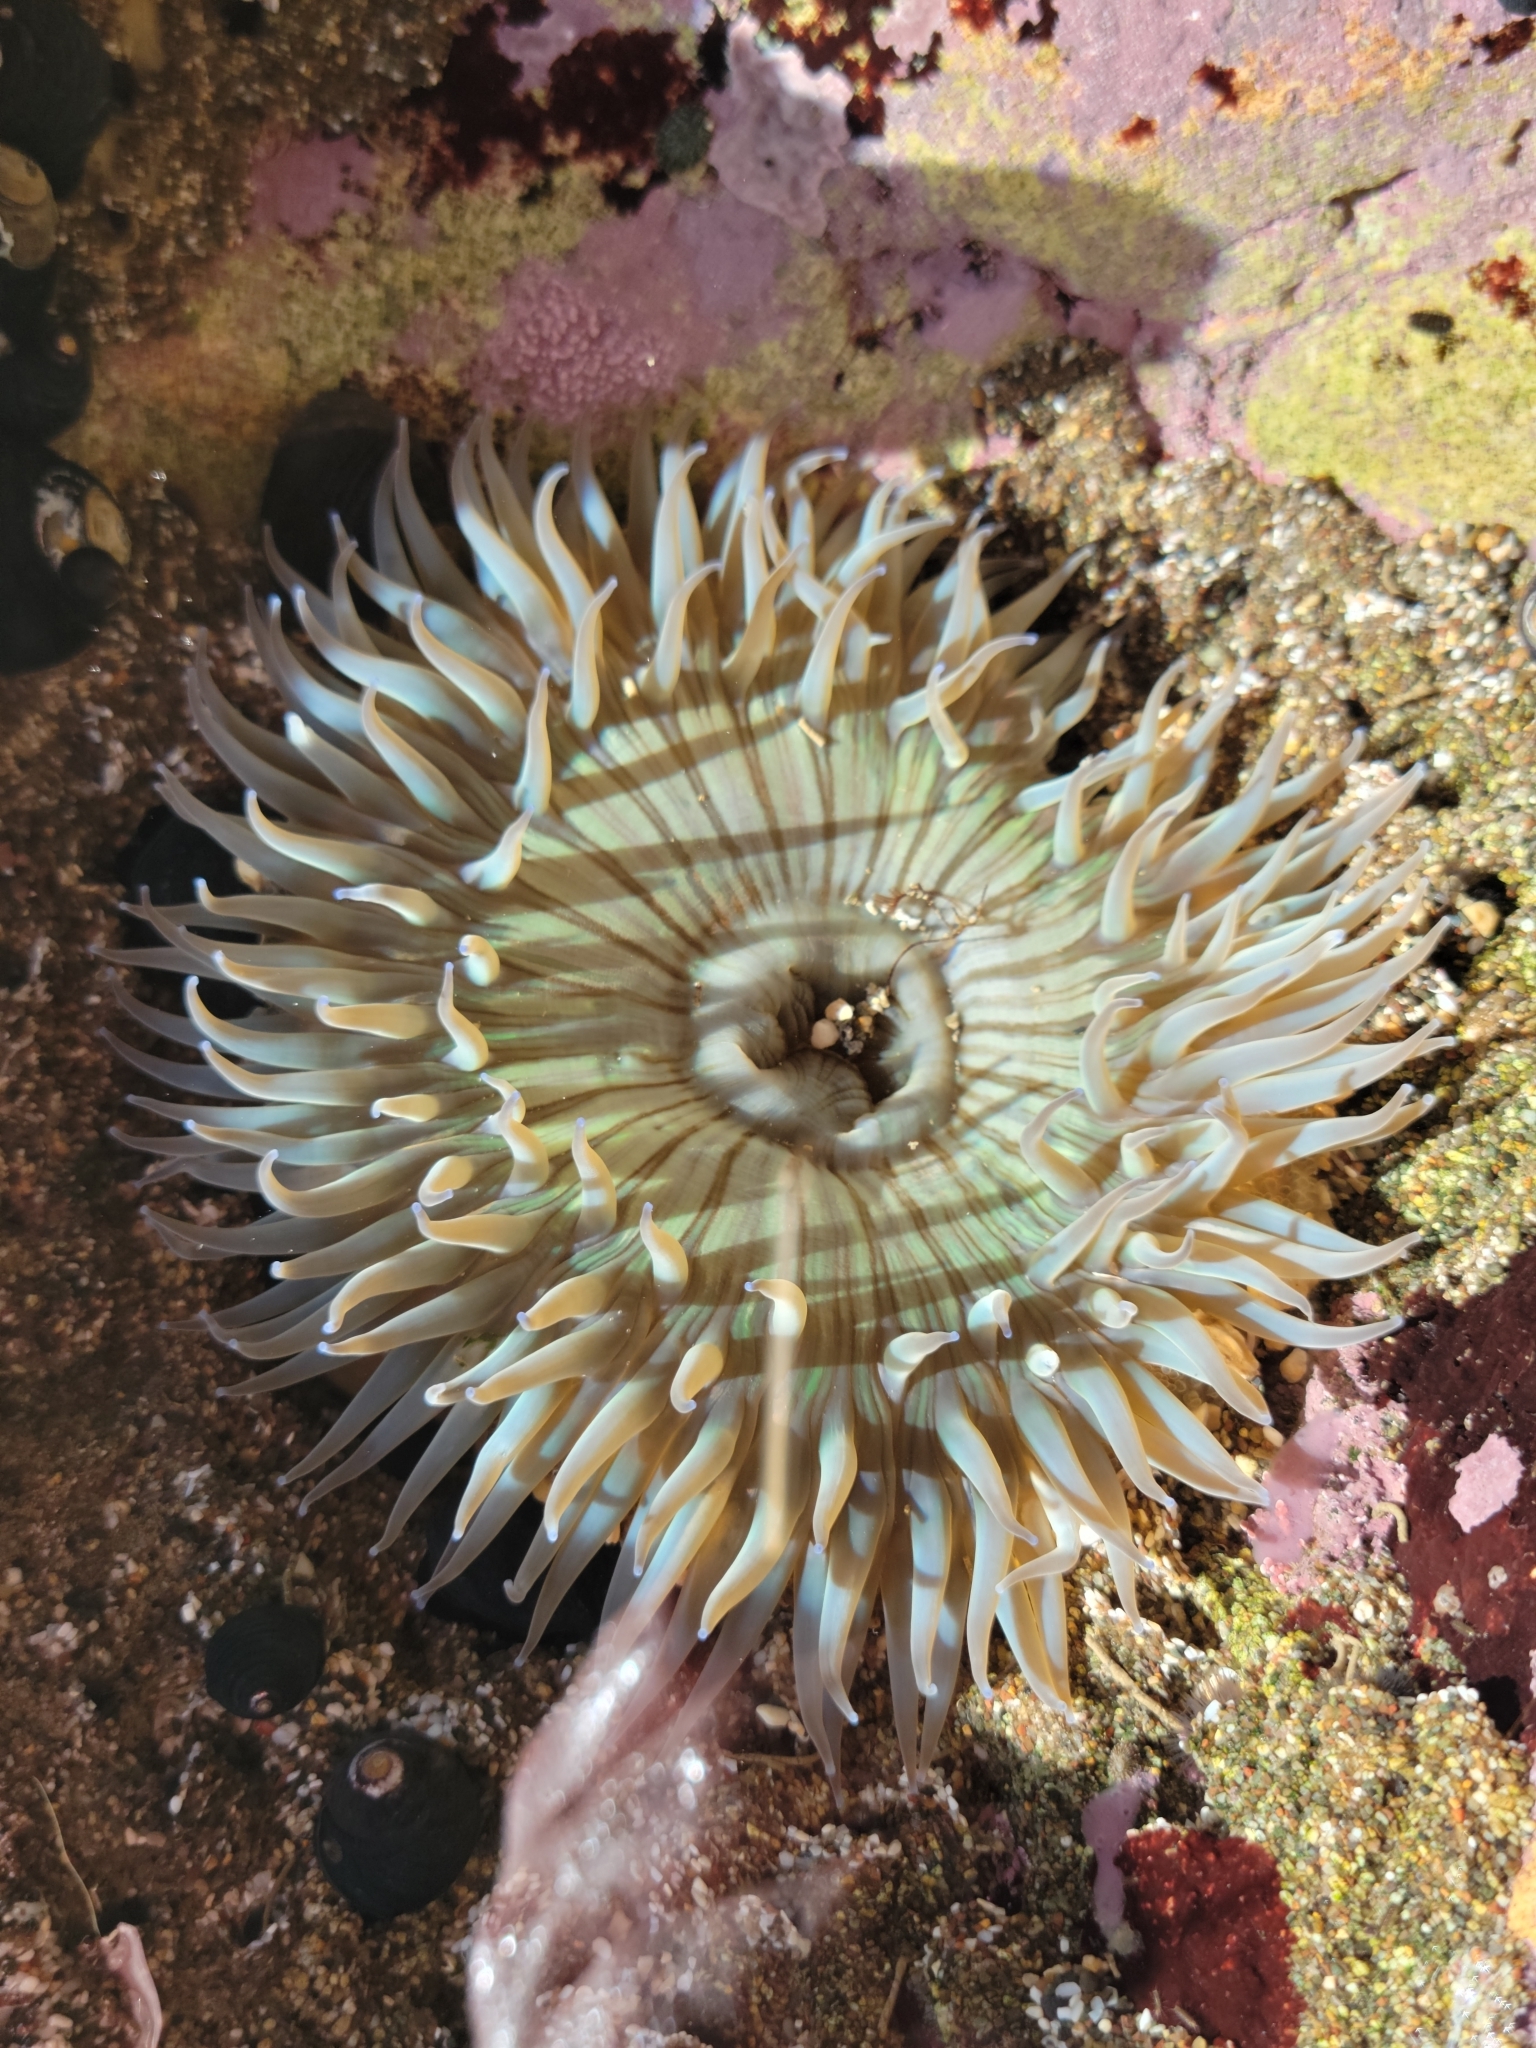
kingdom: Animalia
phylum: Cnidaria
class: Anthozoa
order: Actiniaria
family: Actiniidae
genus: Anthopleura
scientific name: Anthopleura sola
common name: Sun anemone
